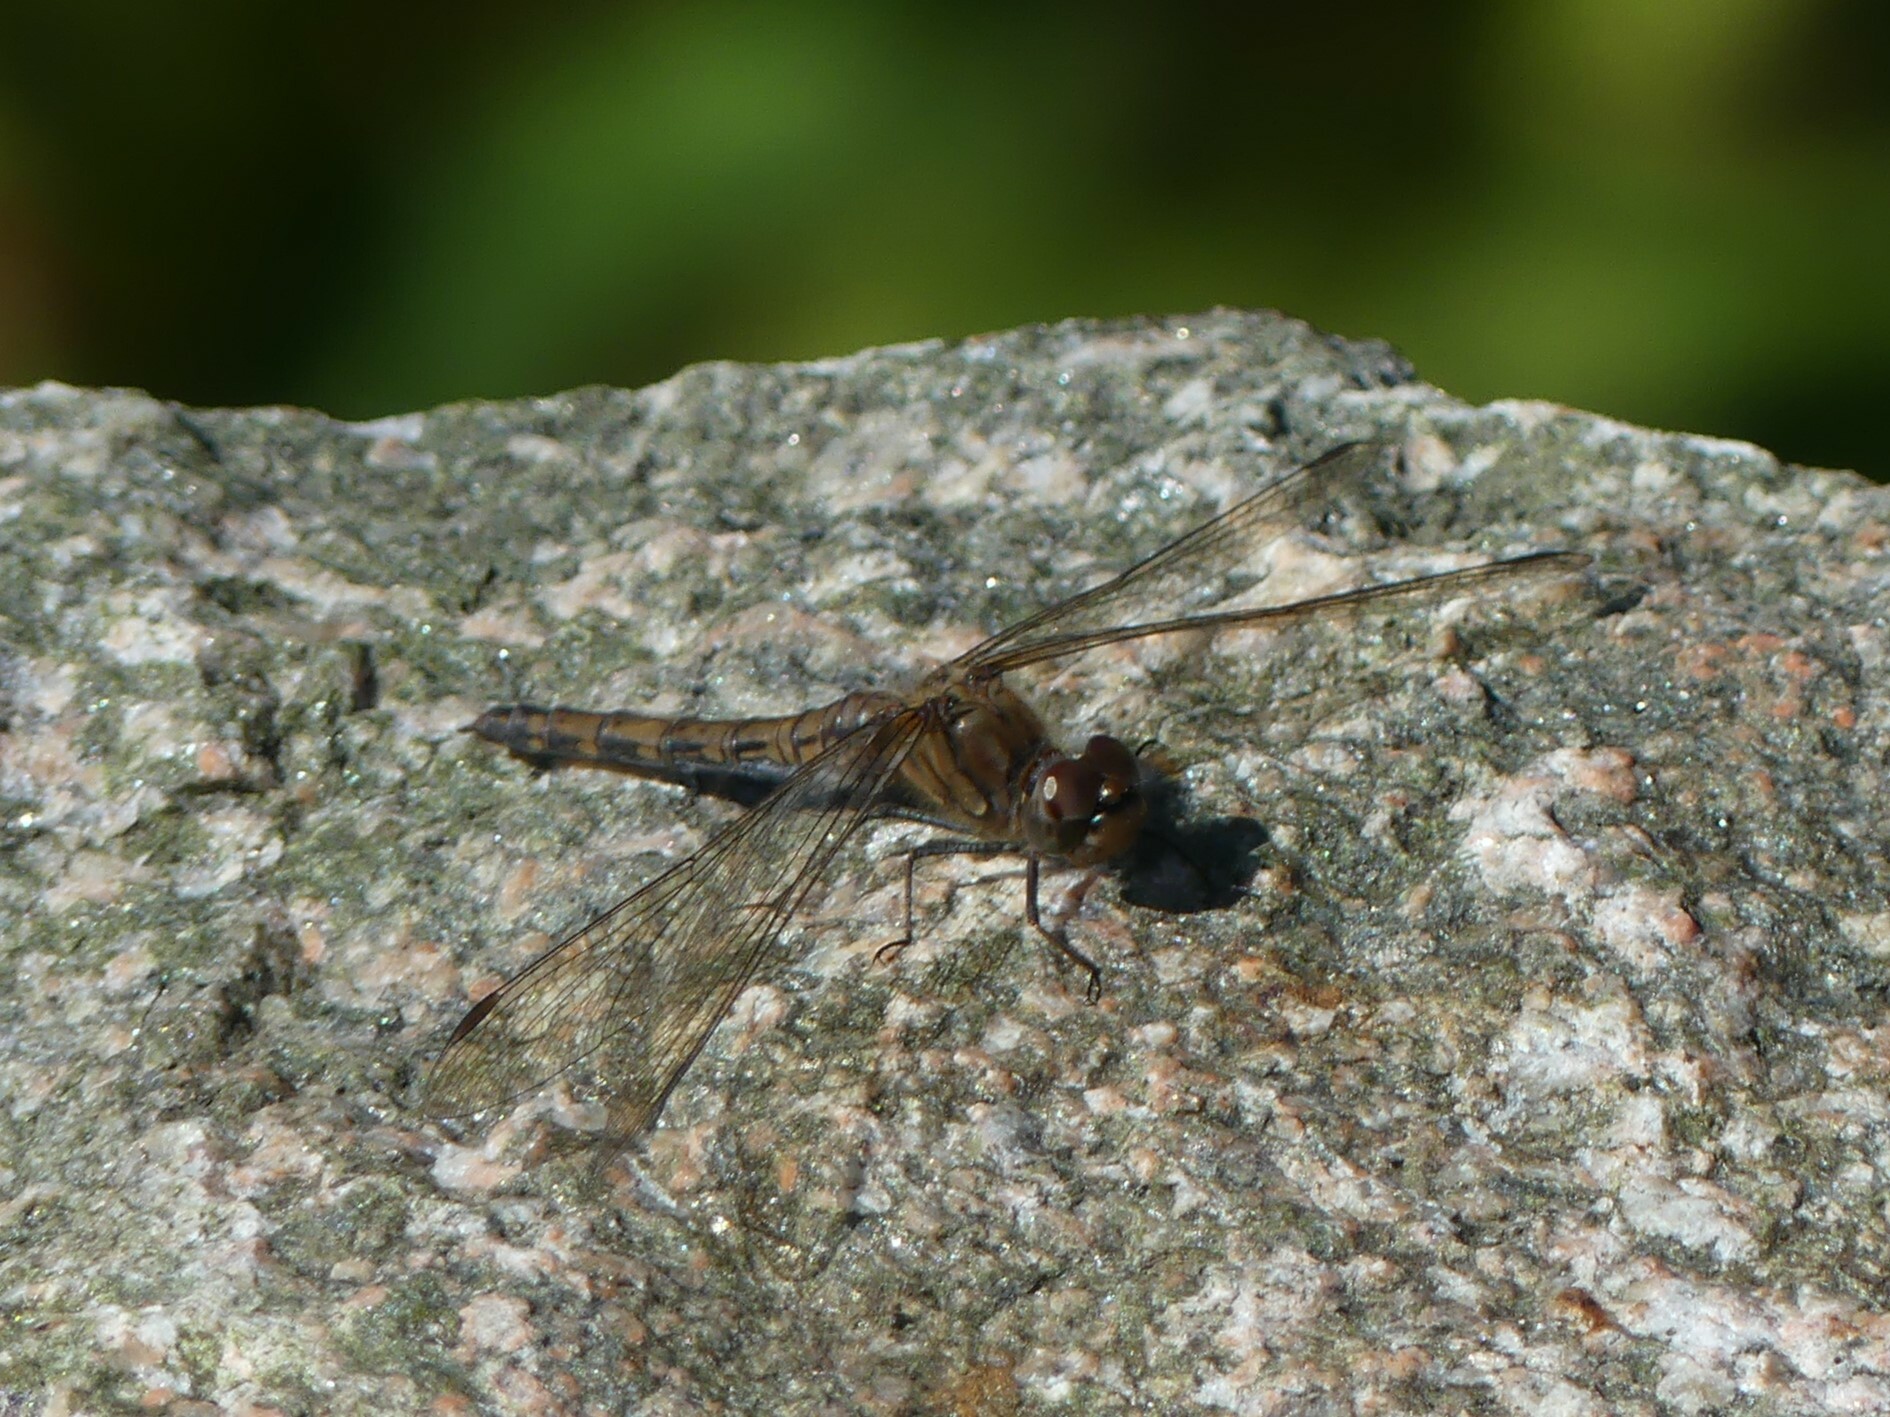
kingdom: Animalia
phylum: Arthropoda
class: Insecta
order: Odonata
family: Libellulidae
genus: Sympetrum
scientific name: Sympetrum striolatum
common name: Common darter
